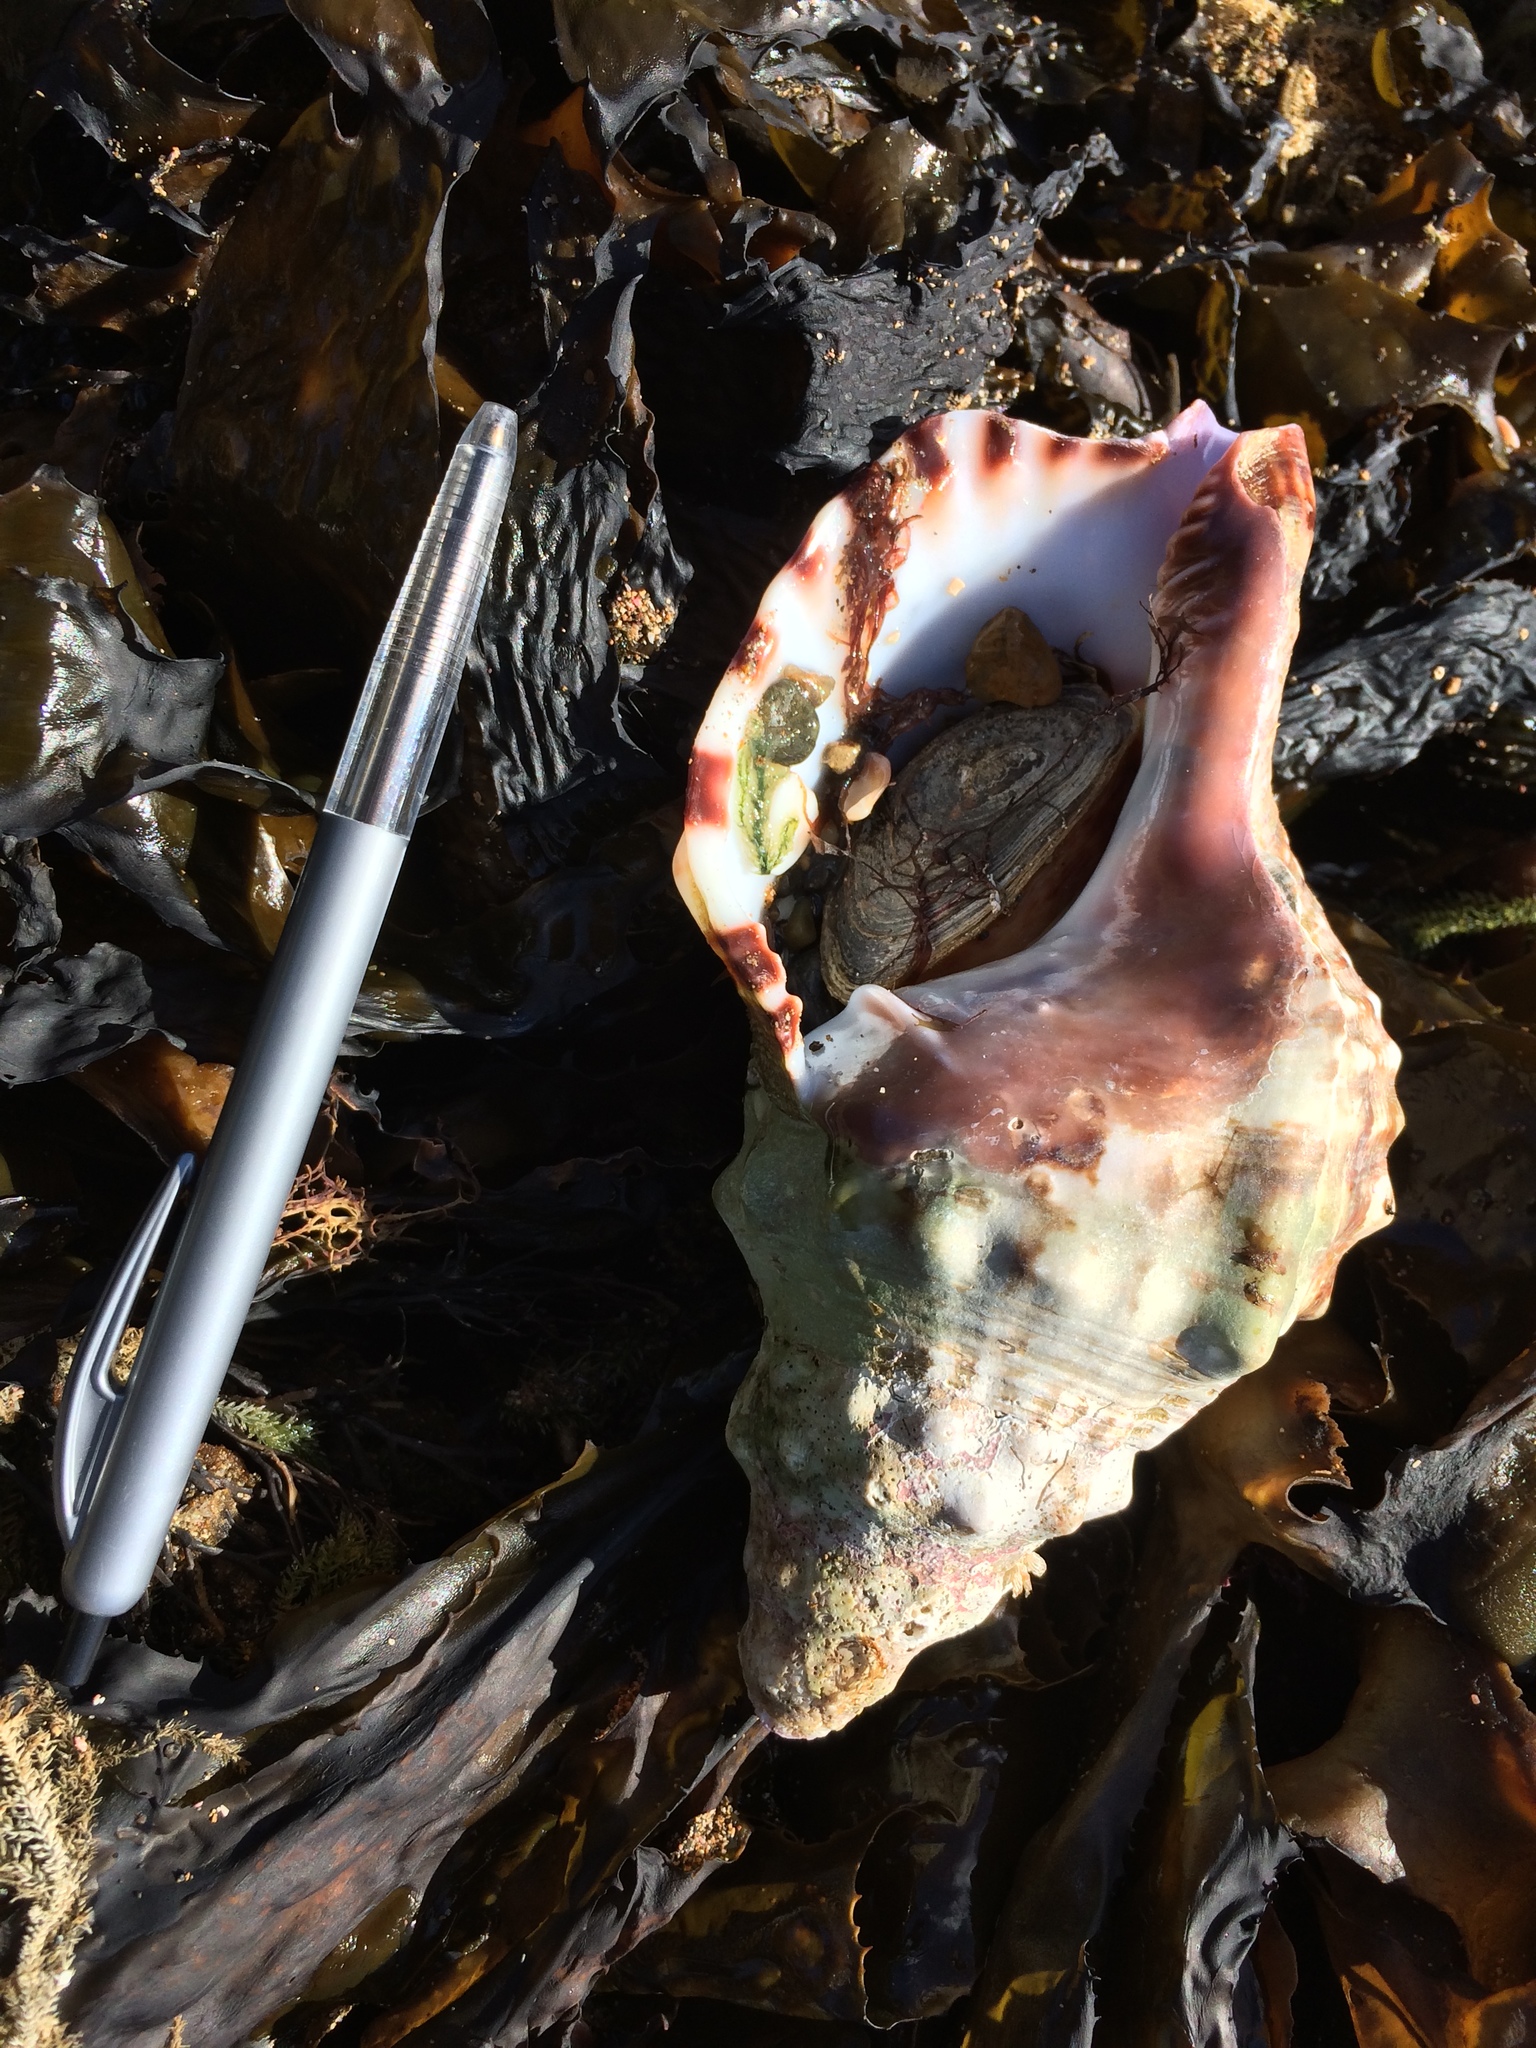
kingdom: Animalia
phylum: Mollusca
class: Gastropoda
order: Littorinimorpha
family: Charoniidae
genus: Charonia
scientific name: Charonia lampas
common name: Knobbed triton
